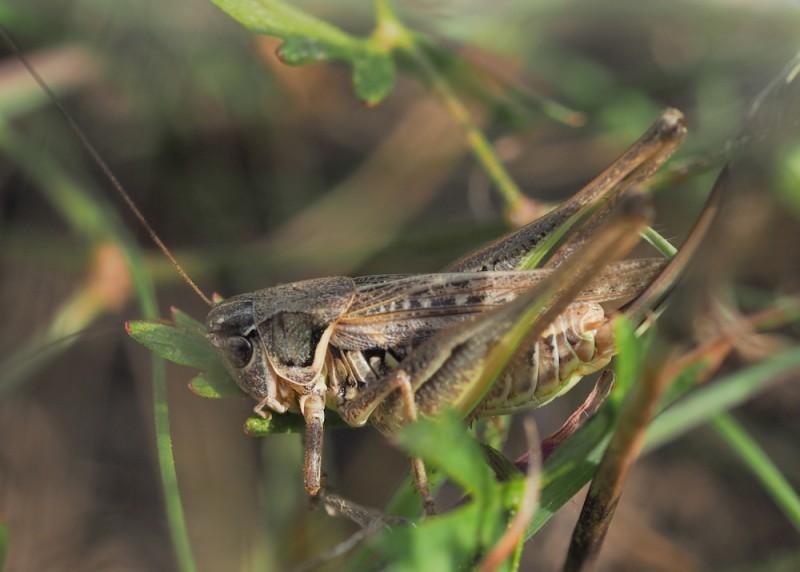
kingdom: Animalia
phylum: Arthropoda
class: Insecta
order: Orthoptera
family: Tettigoniidae
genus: Montana
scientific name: Montana montana
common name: Steppe bush-cricket
